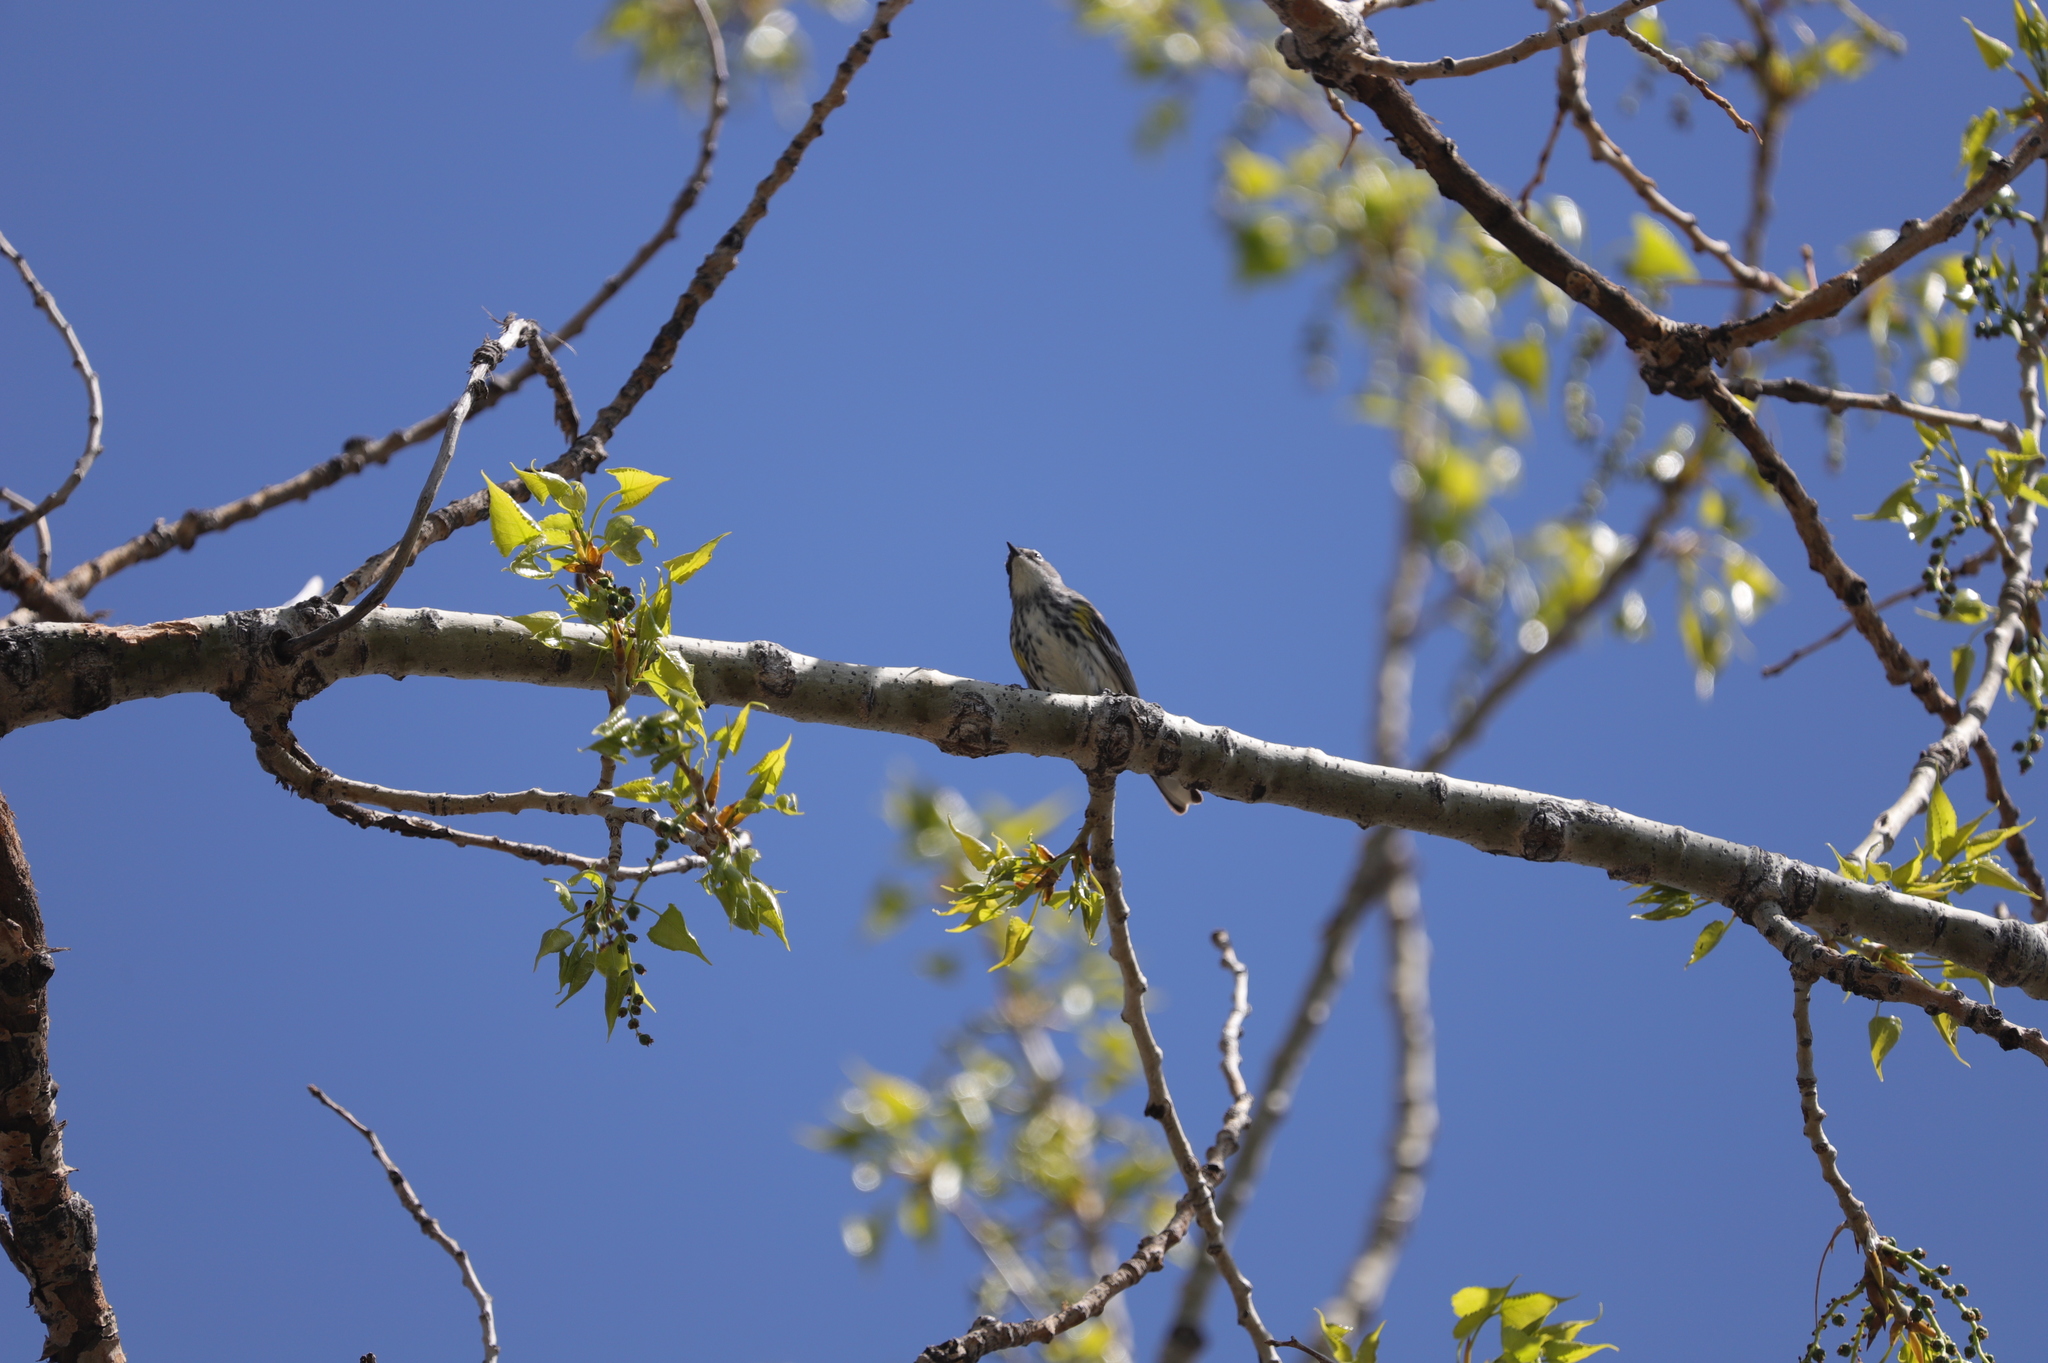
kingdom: Animalia
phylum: Chordata
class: Aves
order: Passeriformes
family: Parulidae
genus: Setophaga
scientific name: Setophaga coronata
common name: Myrtle warbler
